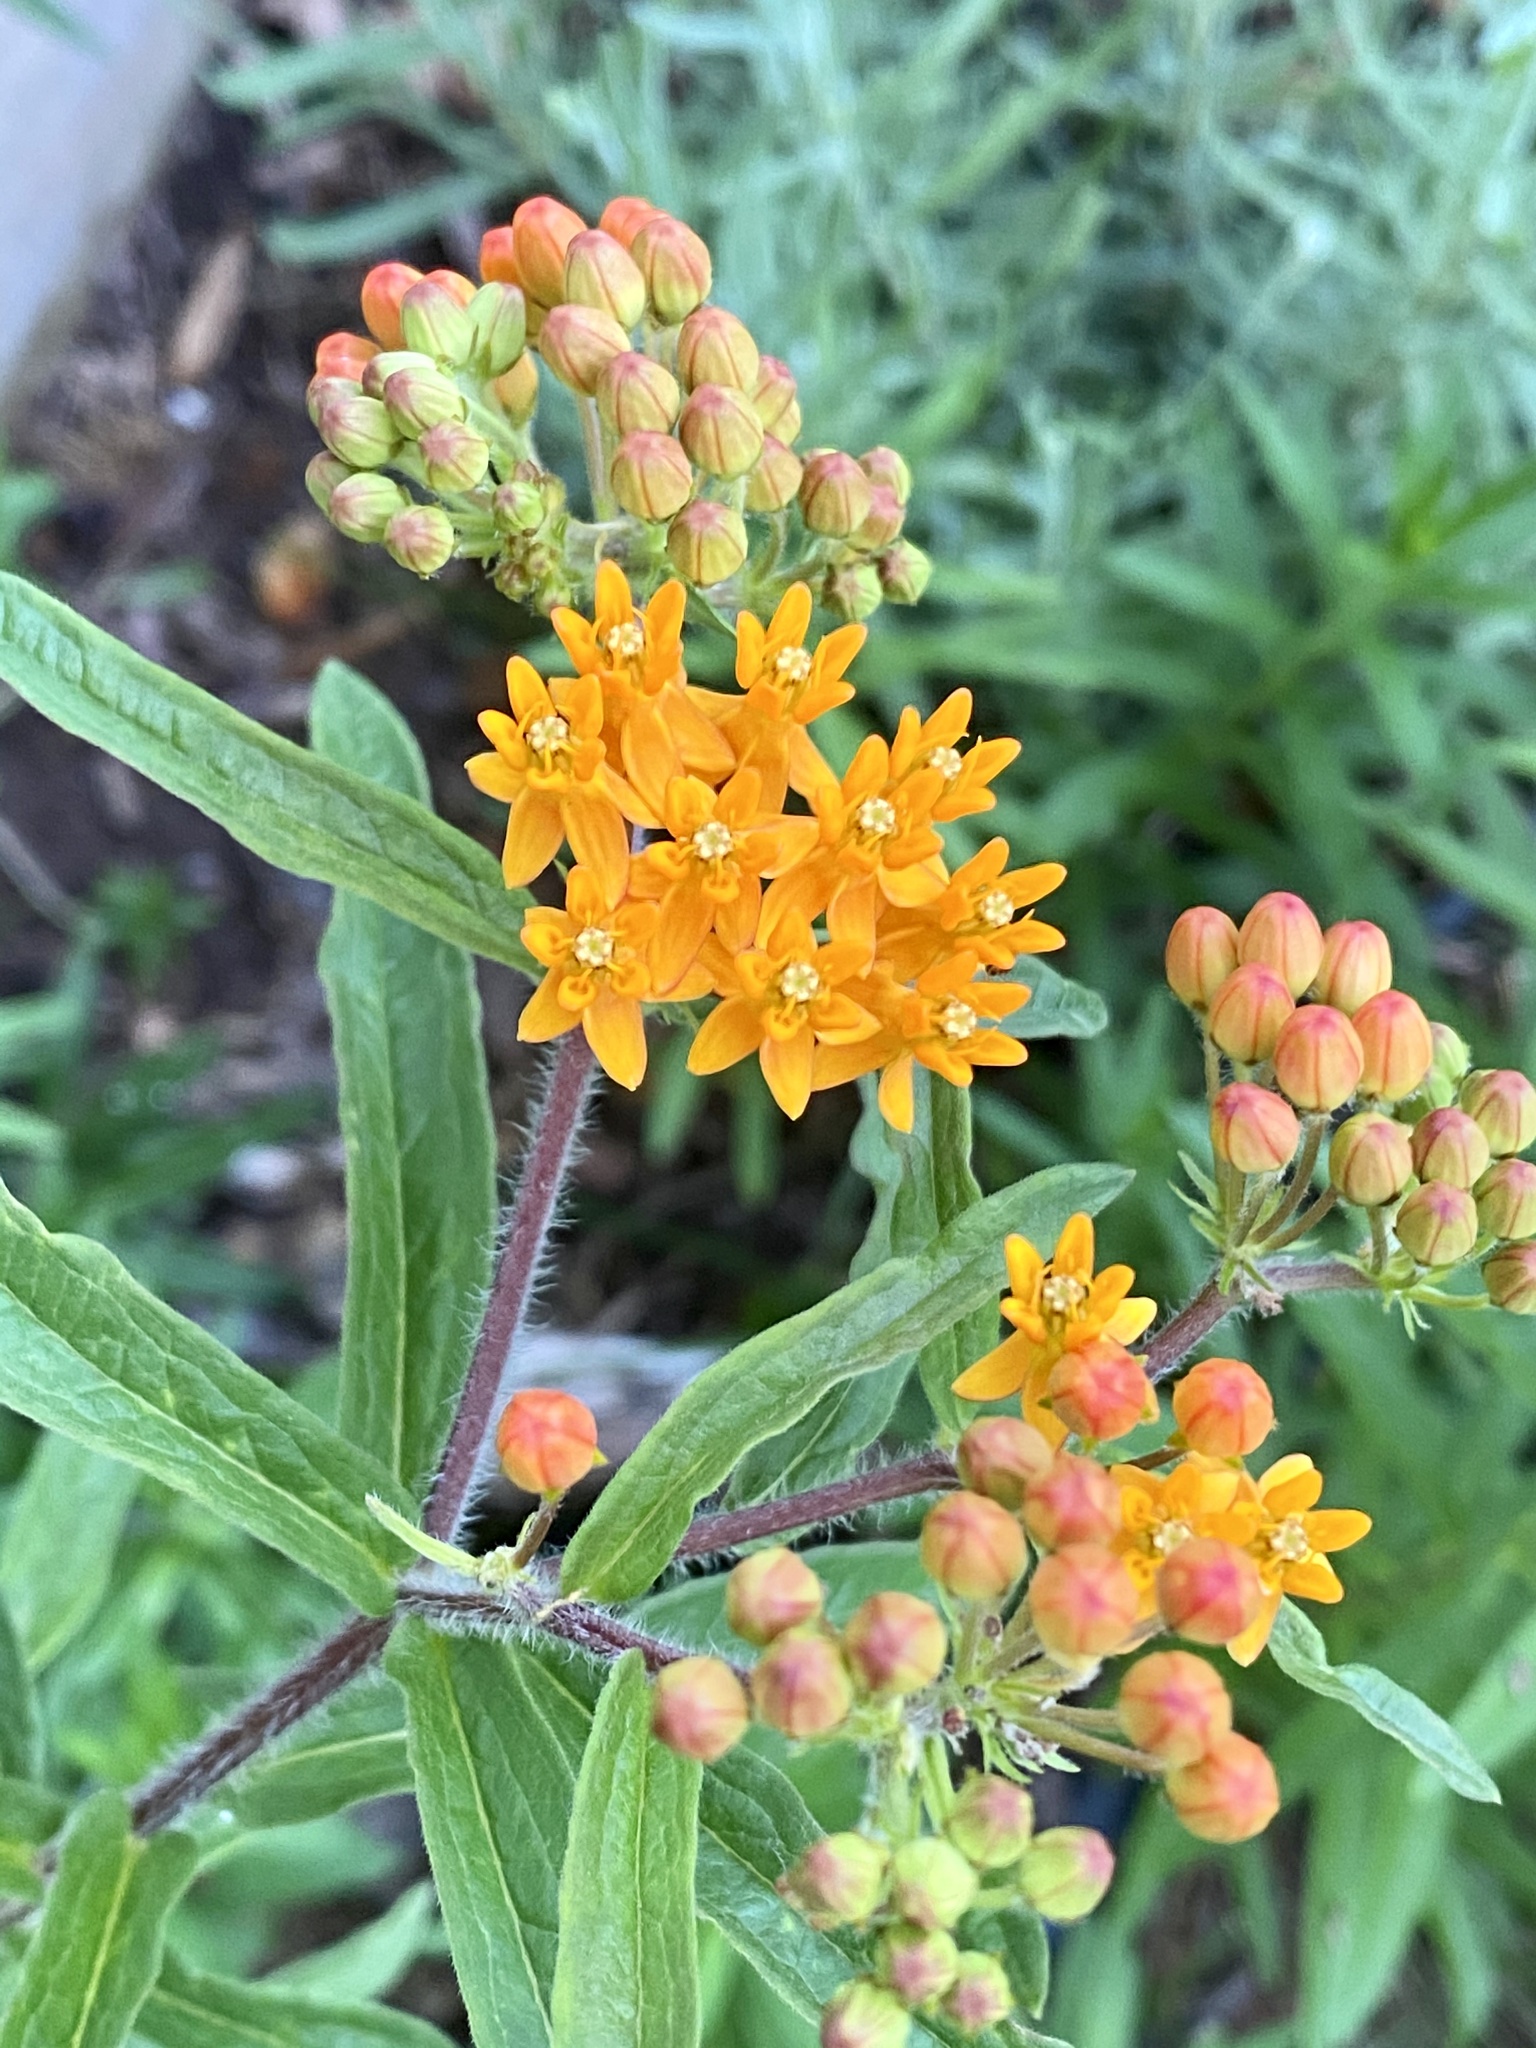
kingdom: Plantae
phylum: Tracheophyta
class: Magnoliopsida
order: Gentianales
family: Apocynaceae
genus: Asclepias
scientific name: Asclepias tuberosa
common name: Butterfly milkweed
